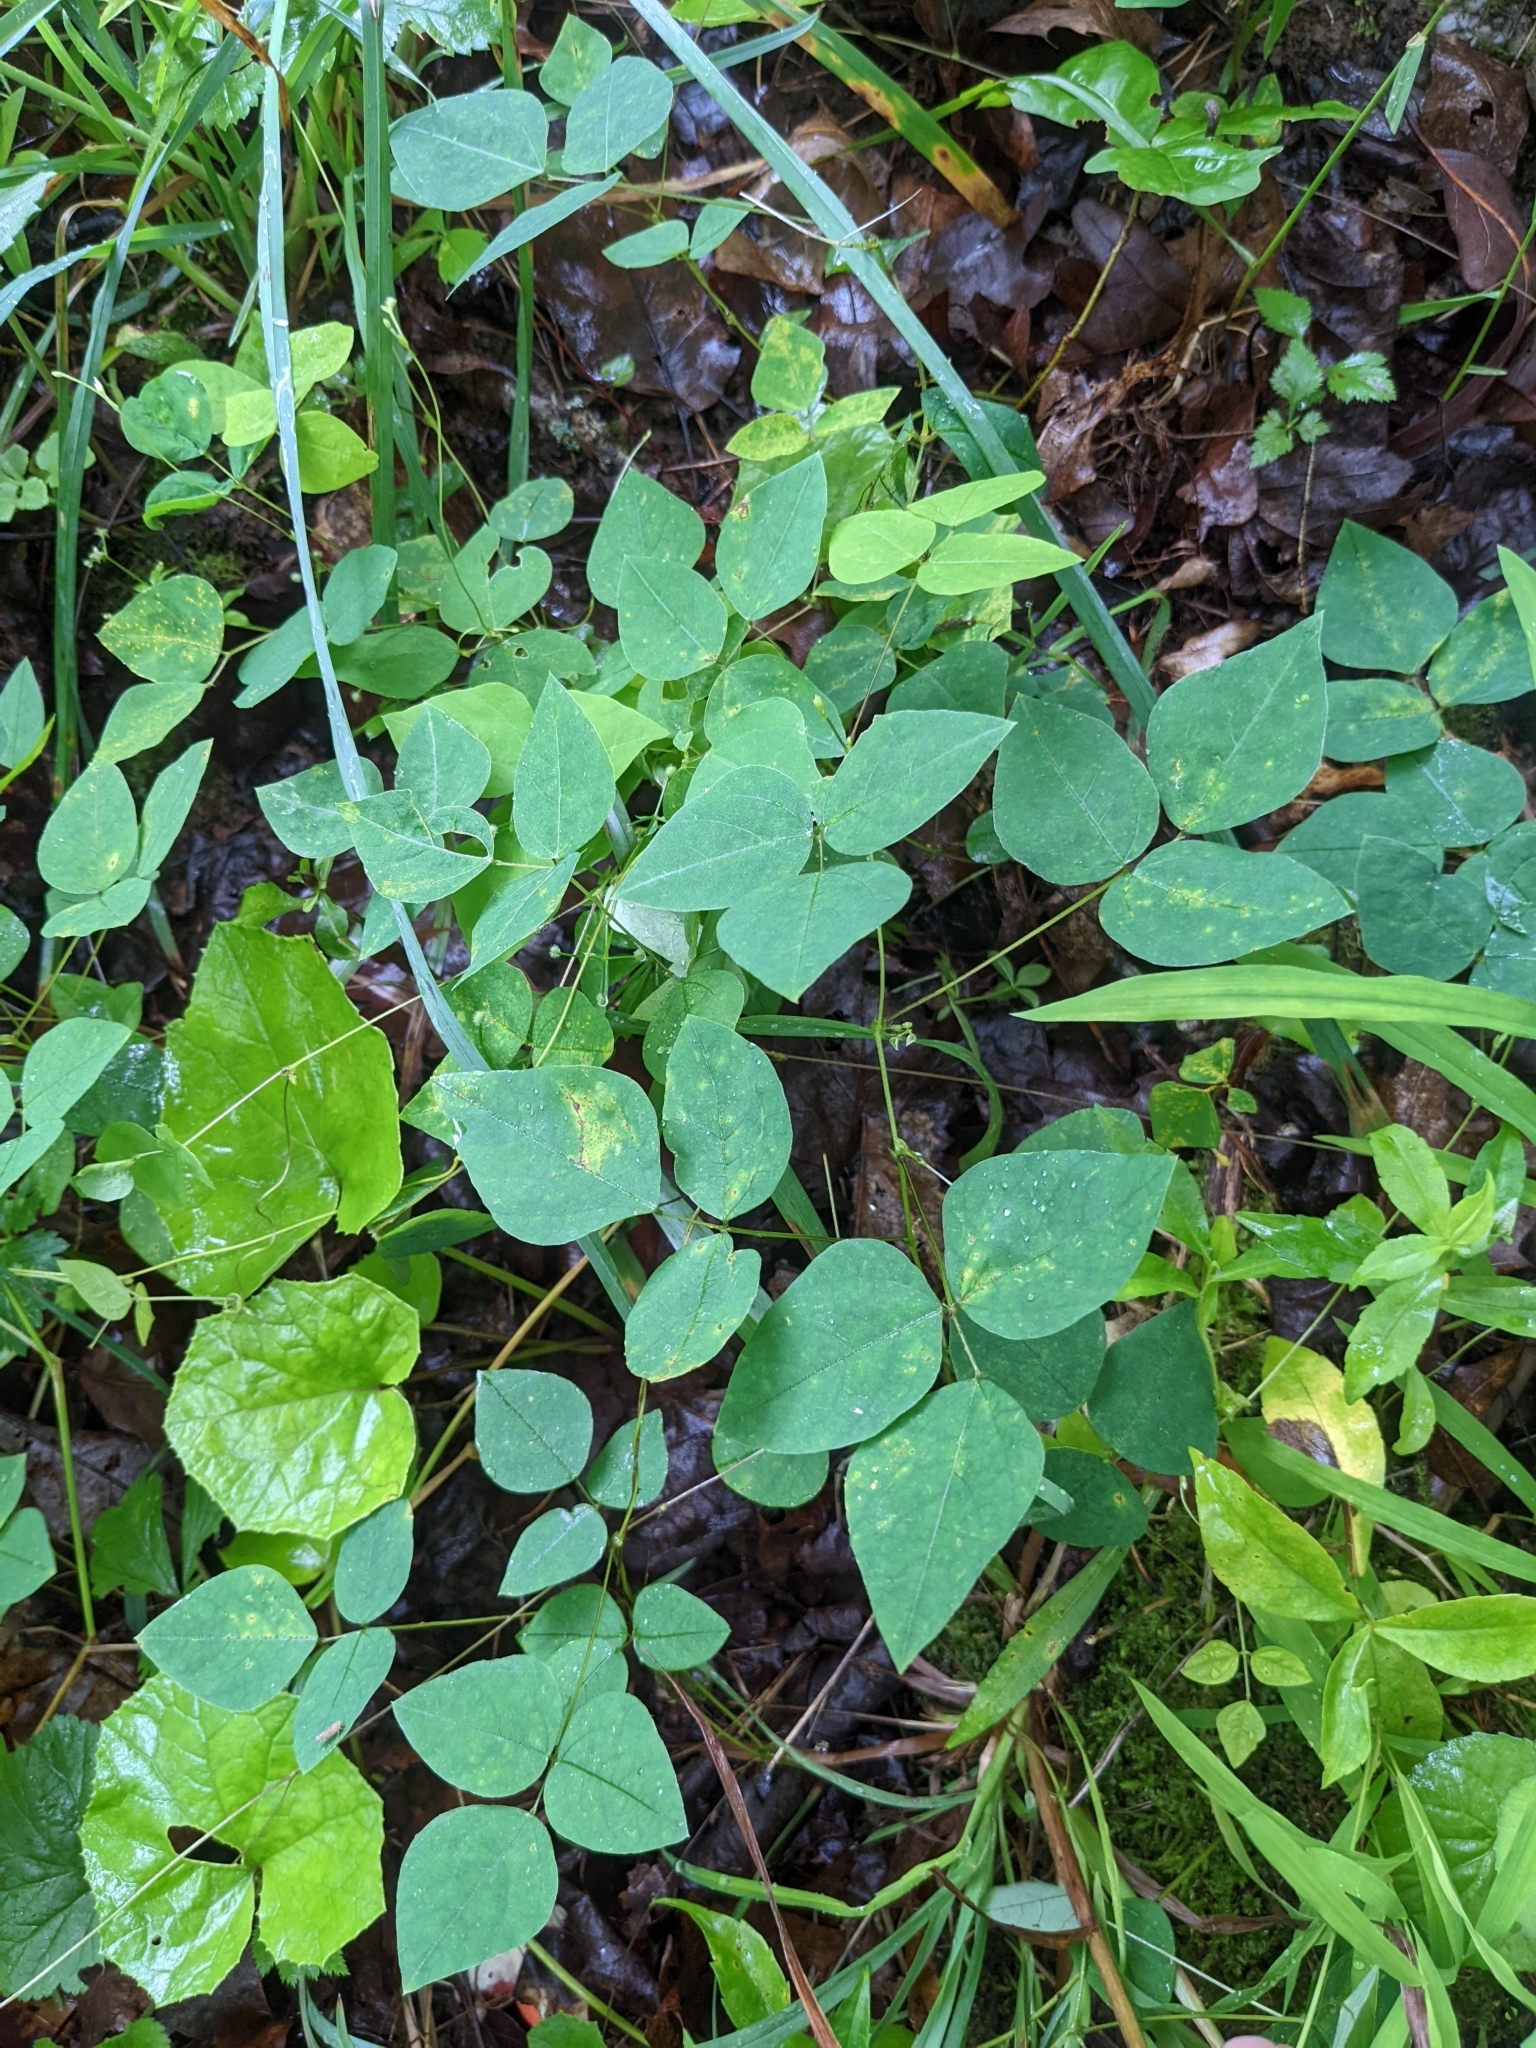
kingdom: Plantae
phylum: Tracheophyta
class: Magnoliopsida
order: Fabales
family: Fabaceae
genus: Amphicarpaea
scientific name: Amphicarpaea bracteata
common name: American hog peanut
